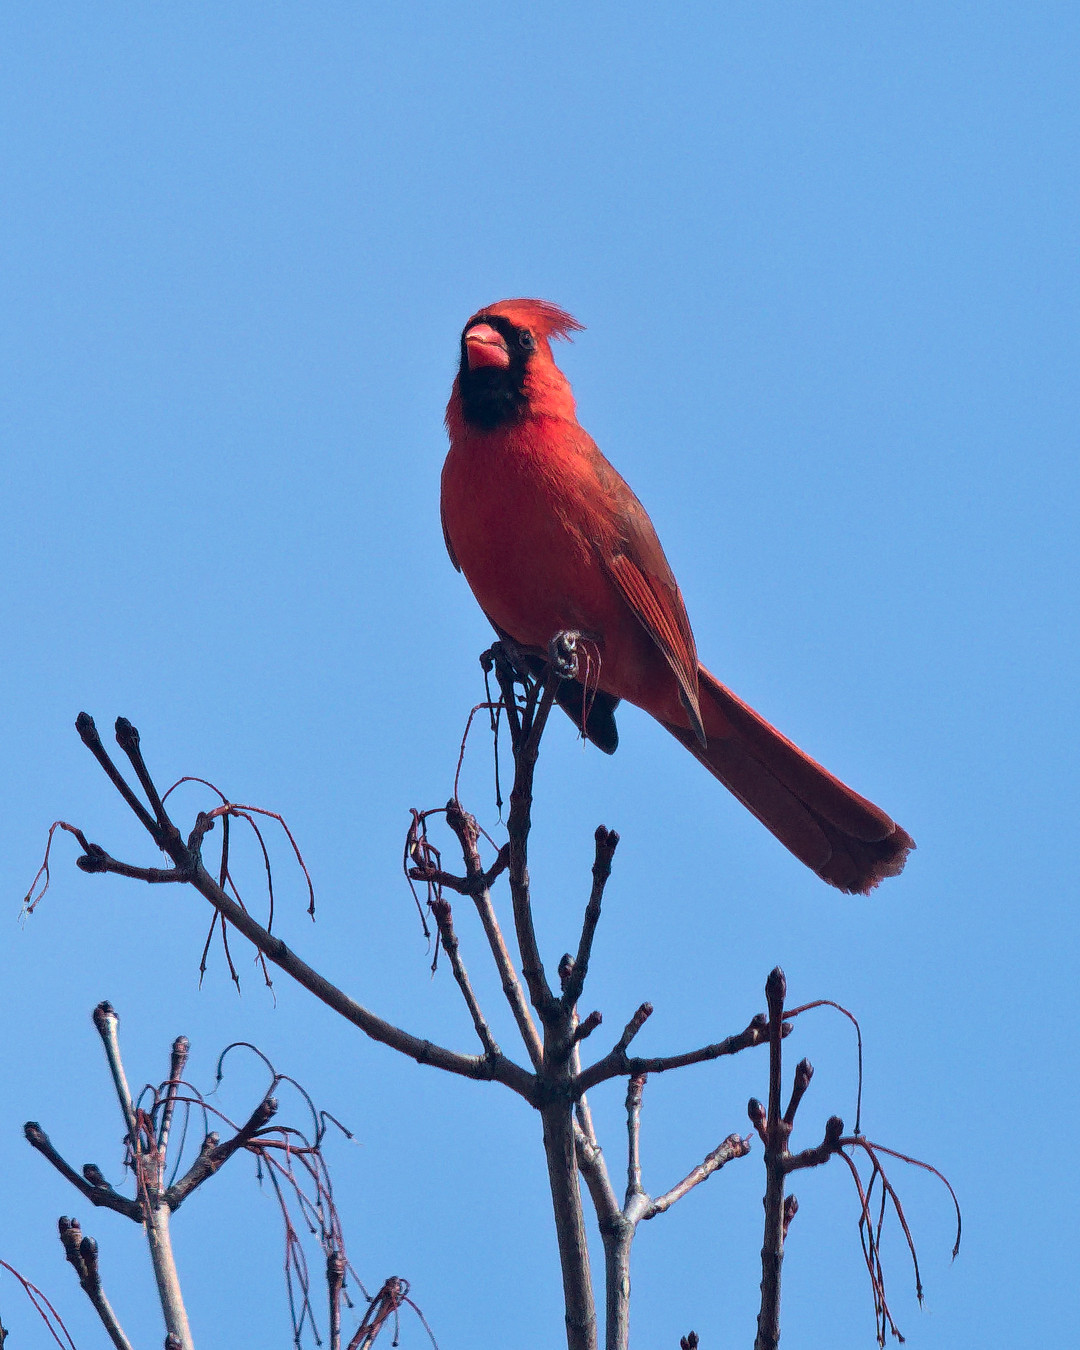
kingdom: Animalia
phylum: Chordata
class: Aves
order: Passeriformes
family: Cardinalidae
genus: Cardinalis
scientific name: Cardinalis cardinalis
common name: Northern cardinal
